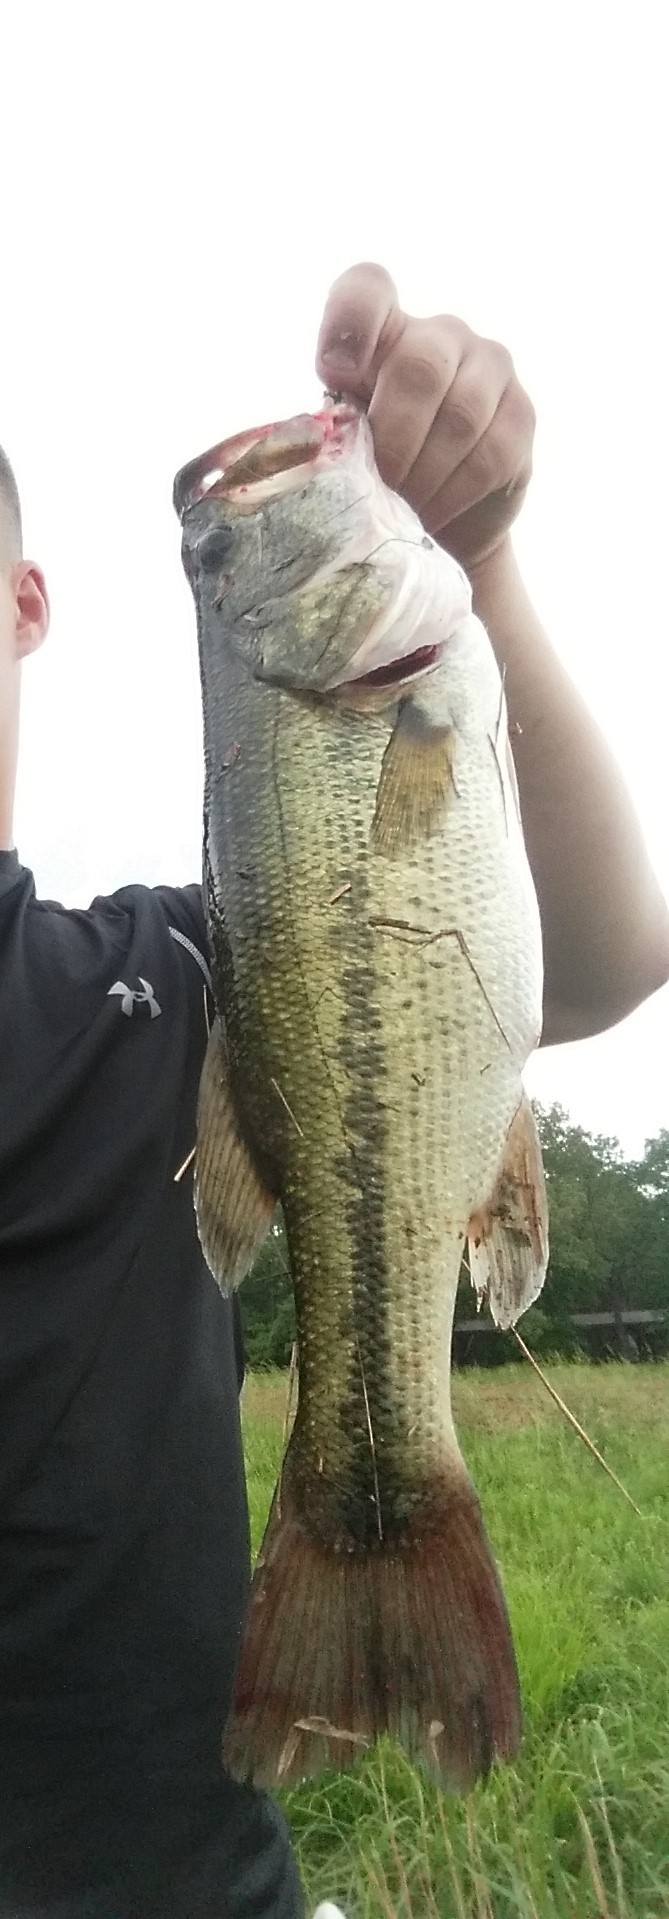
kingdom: Animalia
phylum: Chordata
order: Perciformes
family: Centrarchidae
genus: Micropterus
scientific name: Micropterus
